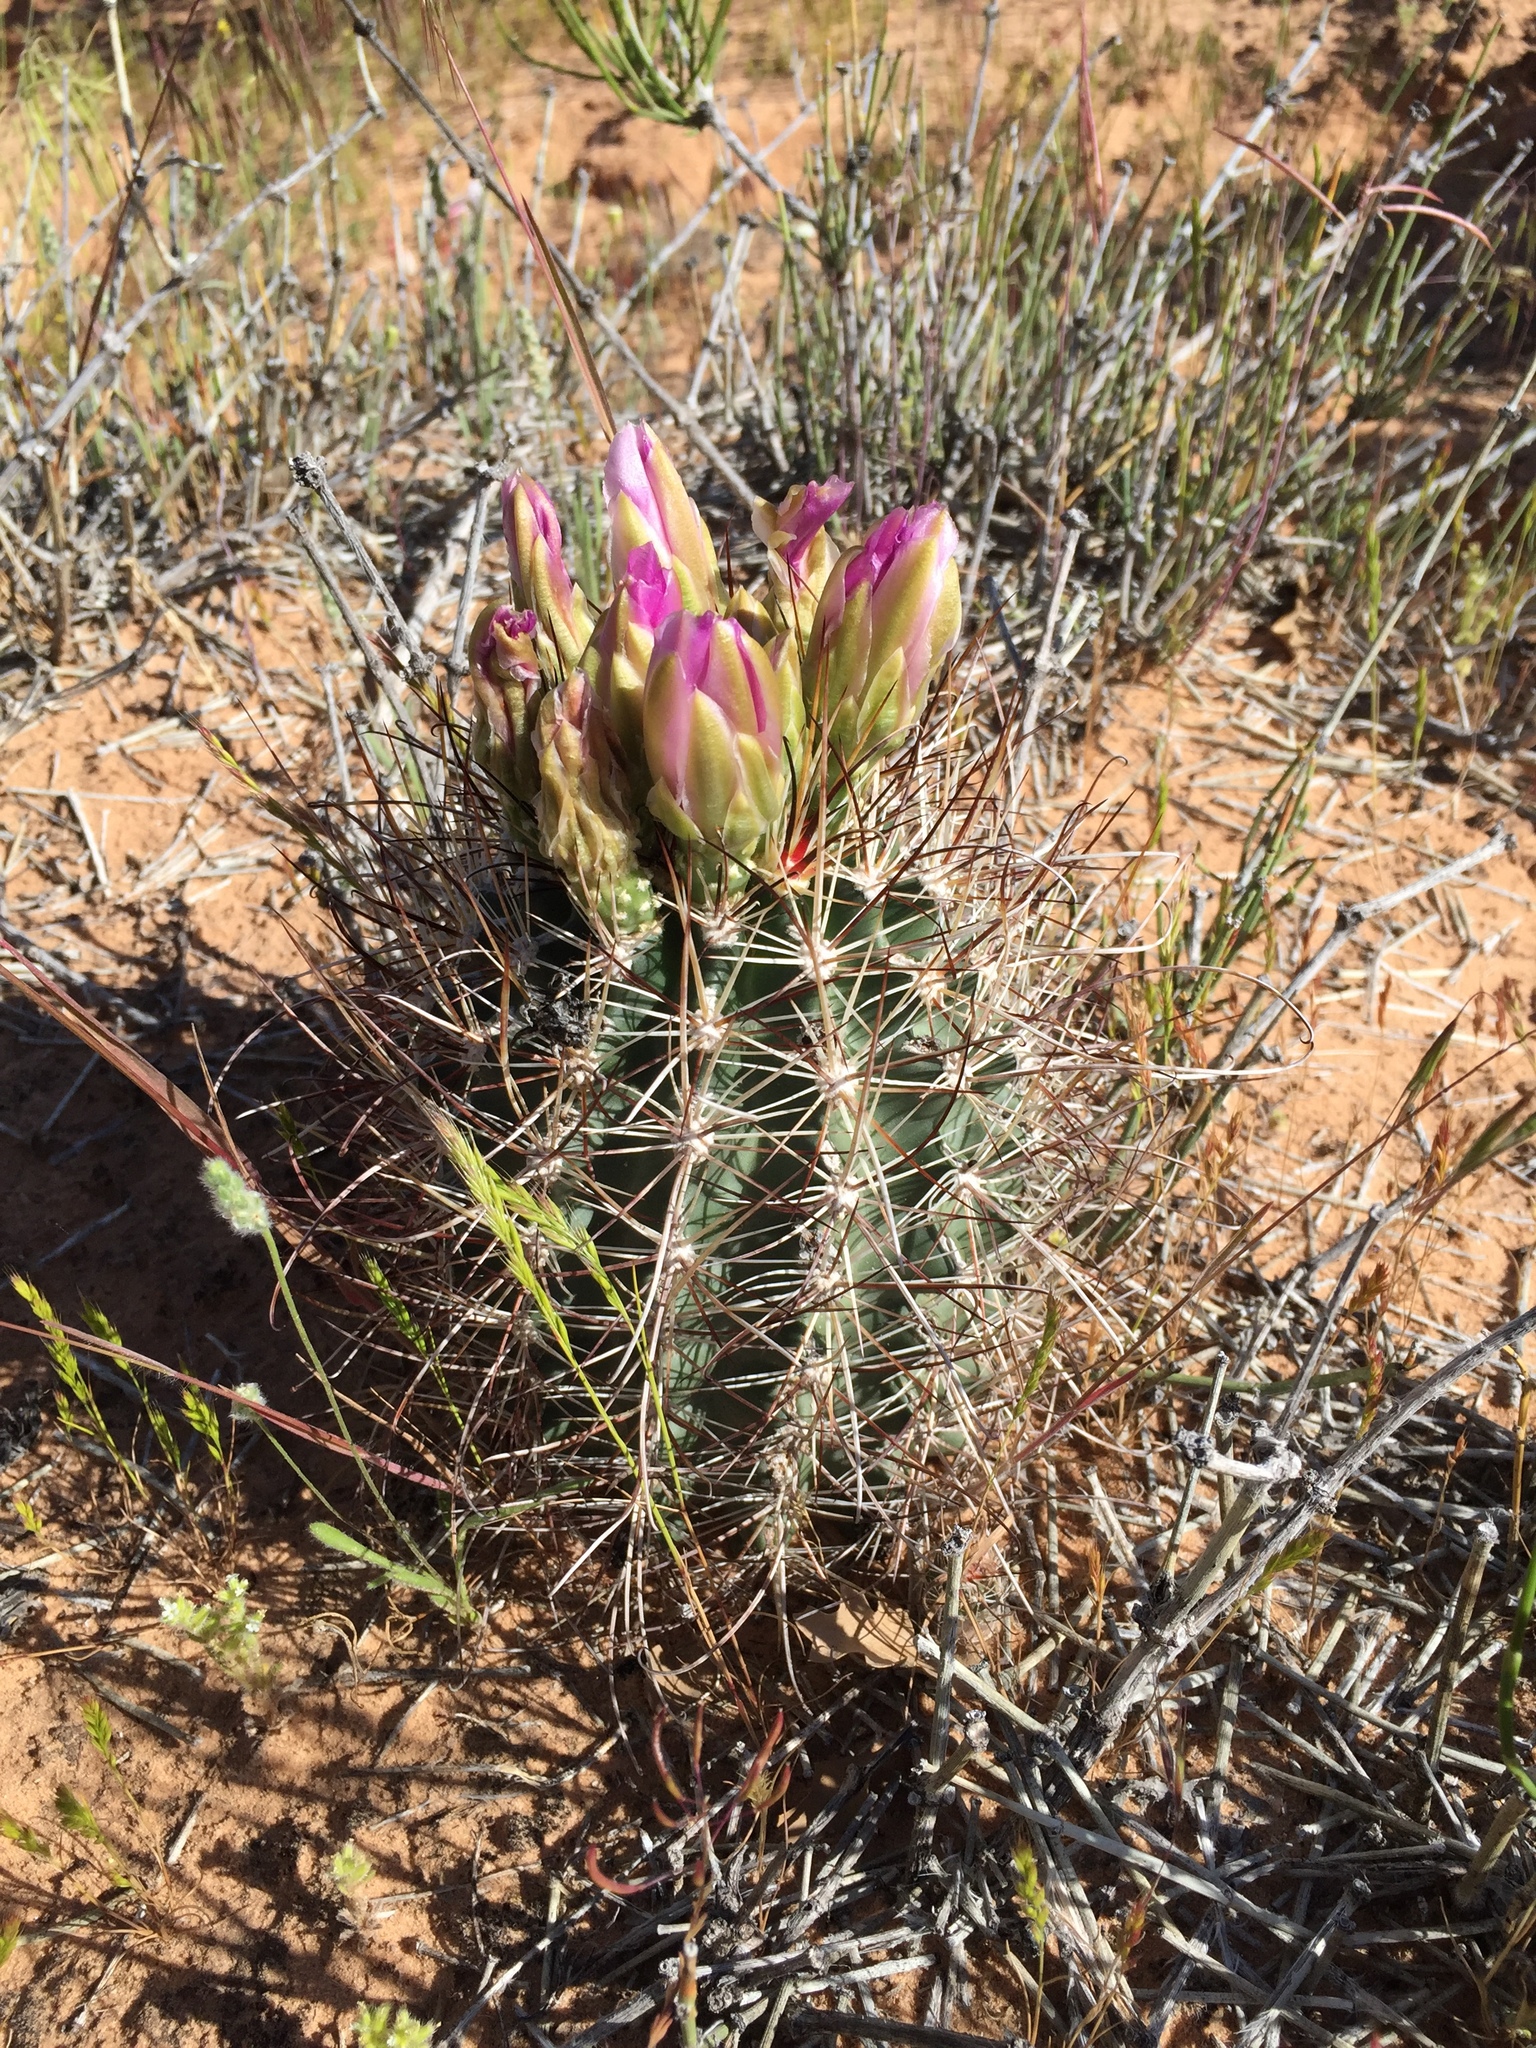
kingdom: Plantae
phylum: Tracheophyta
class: Magnoliopsida
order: Caryophyllales
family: Cactaceae
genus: Sclerocactus
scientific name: Sclerocactus parviflorus
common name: Small-flower fishhook cactus
